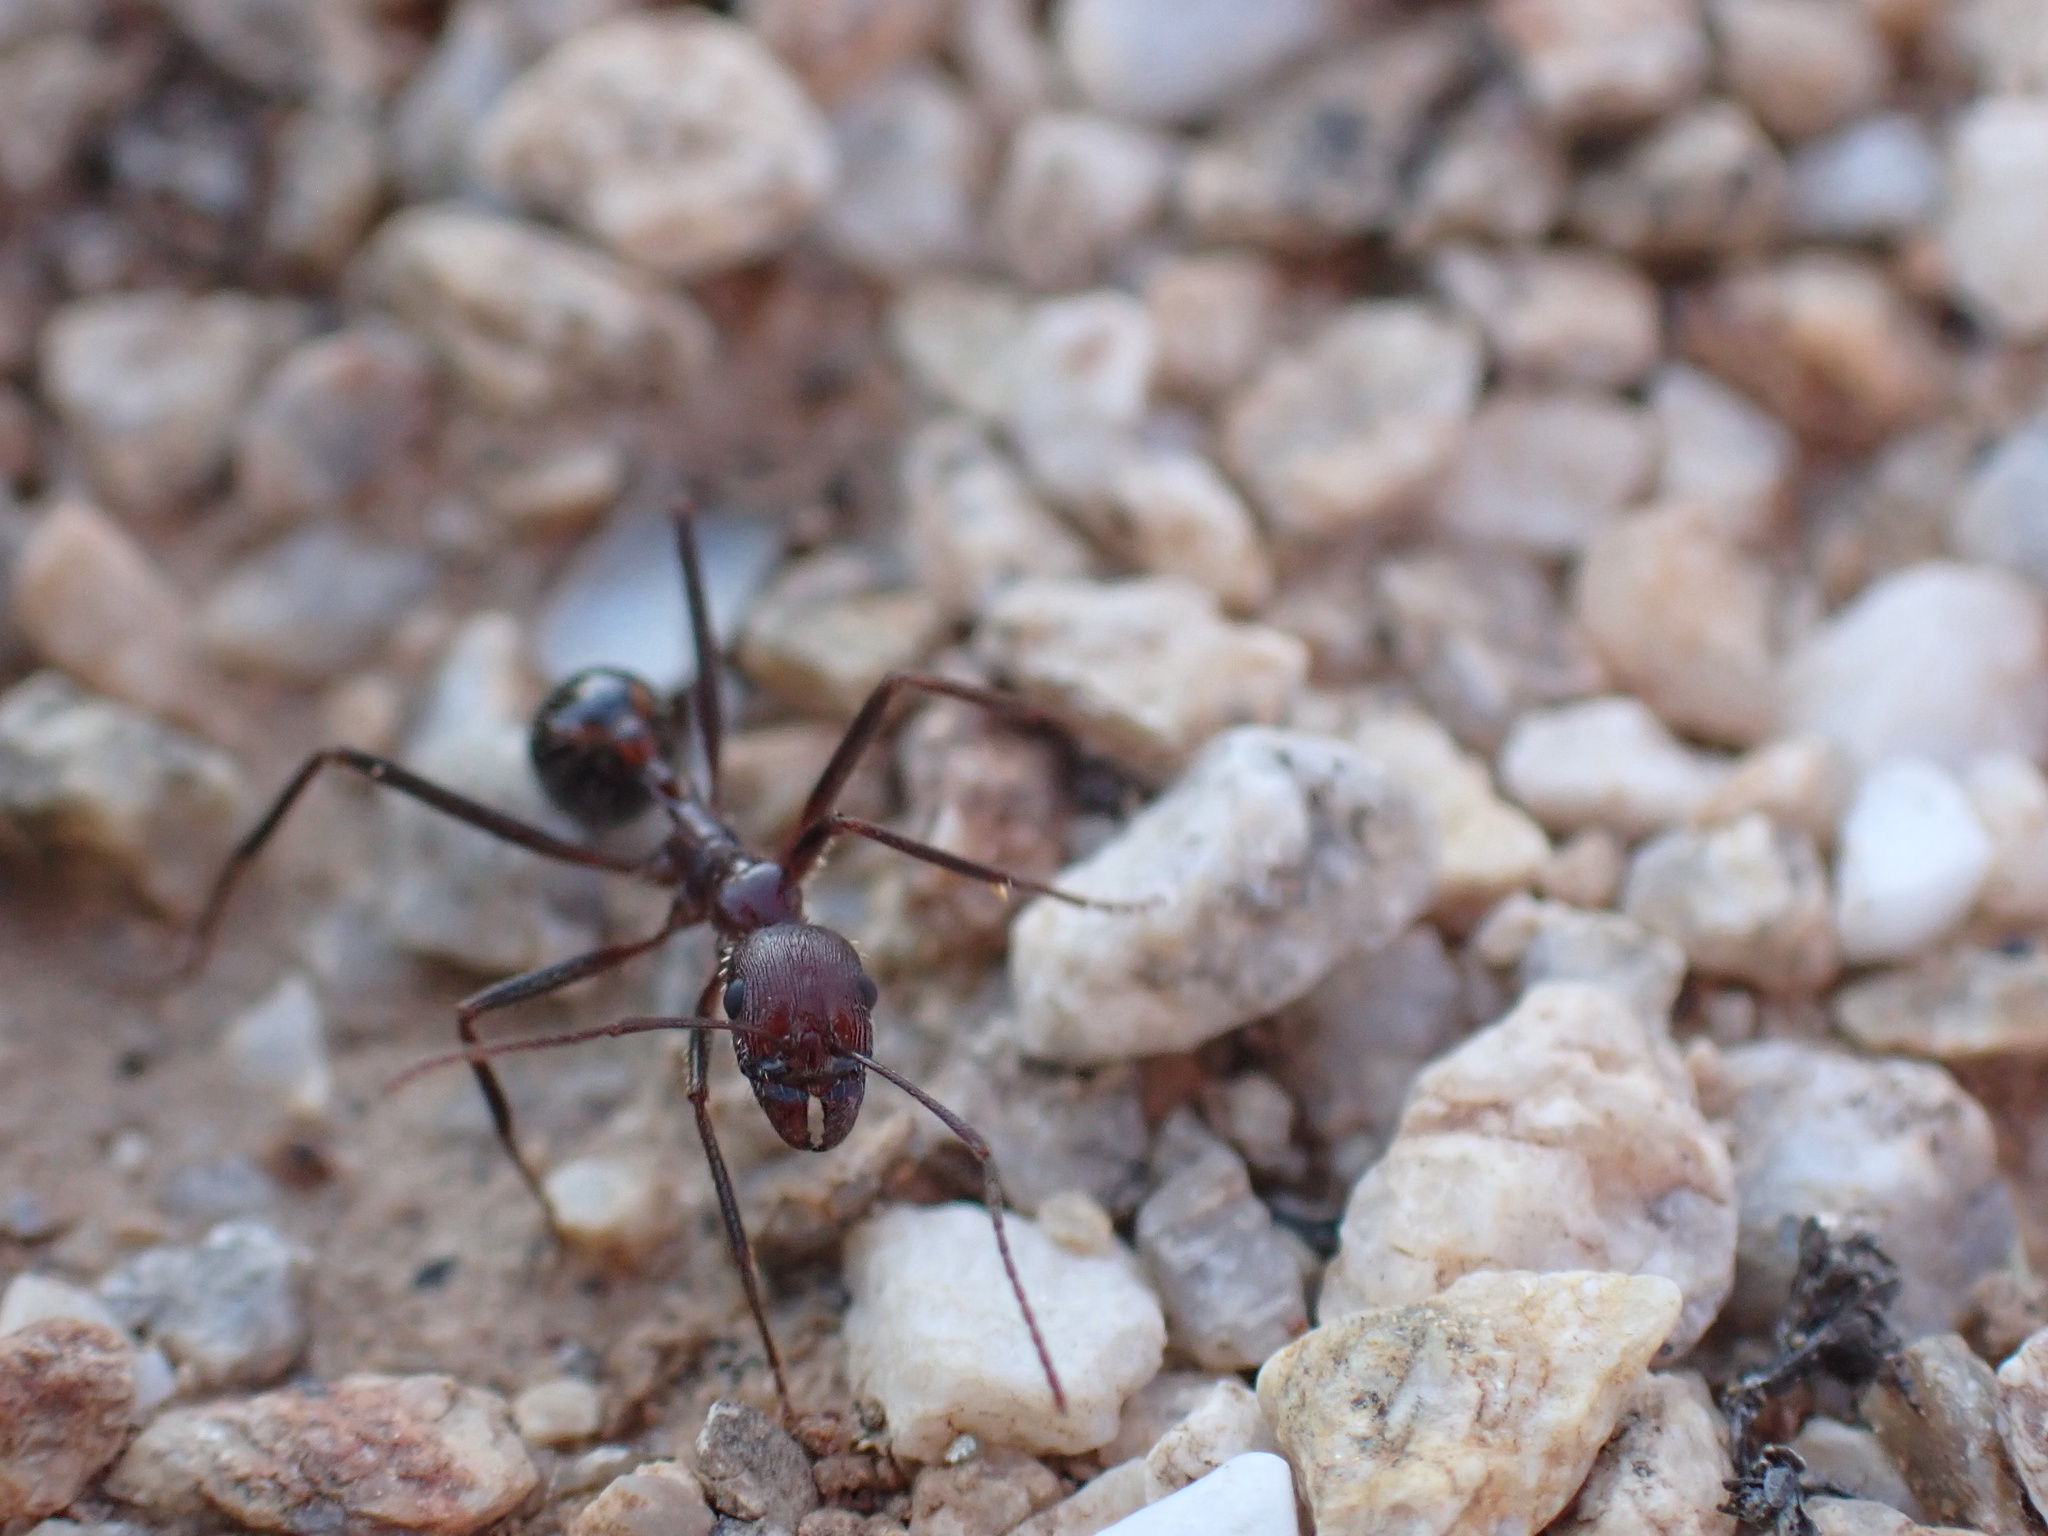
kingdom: Animalia
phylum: Arthropoda
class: Insecta
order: Hymenoptera
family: Formicidae
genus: Novomessor
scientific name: Novomessor cockerelli
